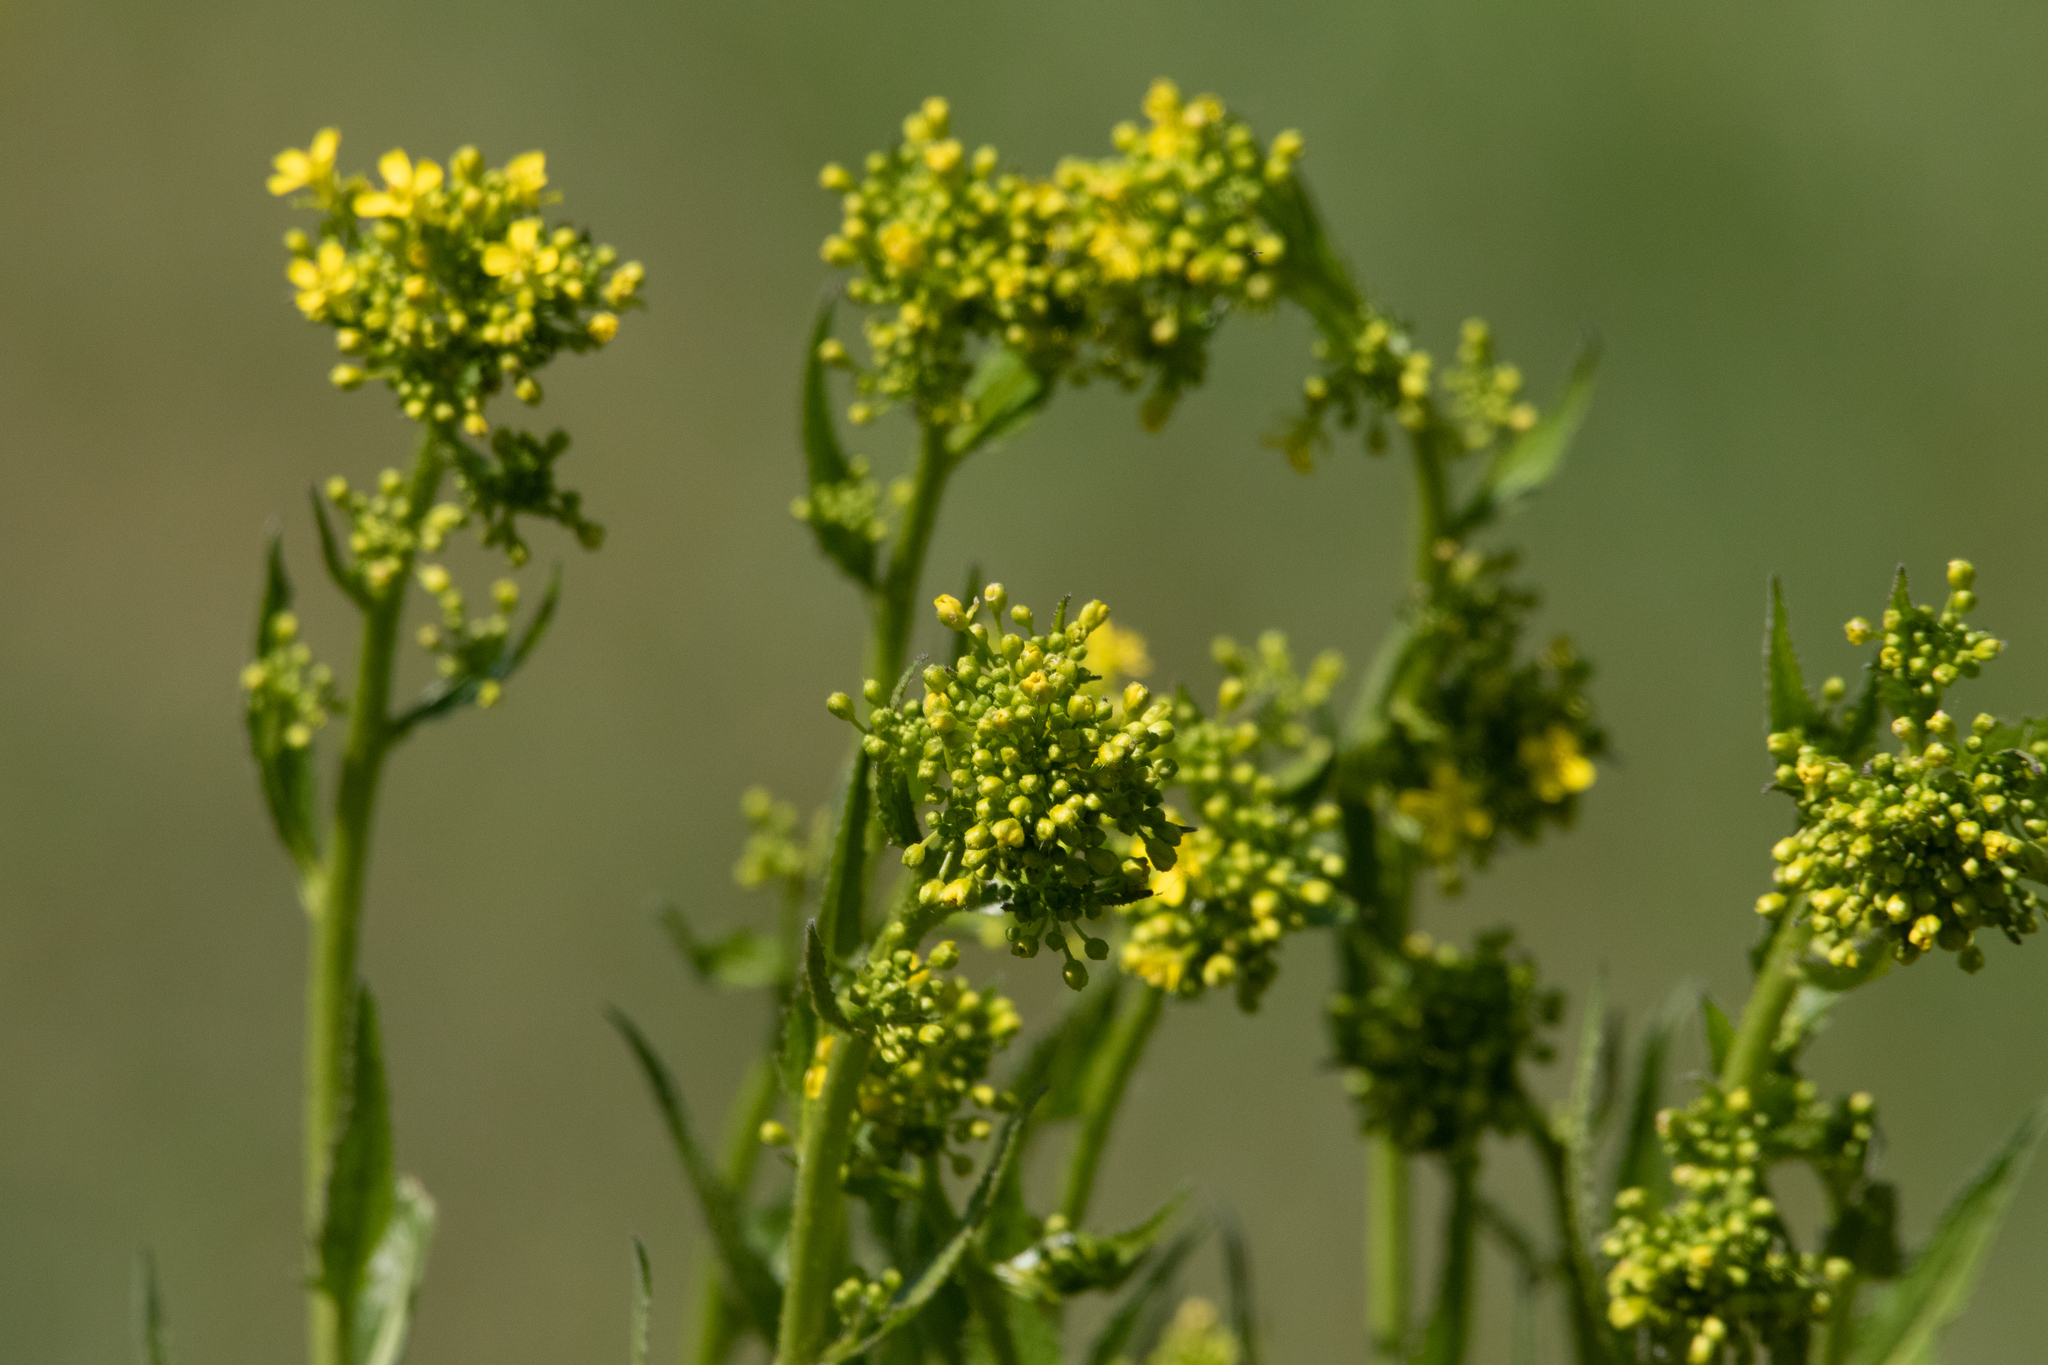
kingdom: Plantae
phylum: Tracheophyta
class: Magnoliopsida
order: Brassicales
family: Brassicaceae
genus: Bunias
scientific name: Bunias orientalis
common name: Warty-cabbage
